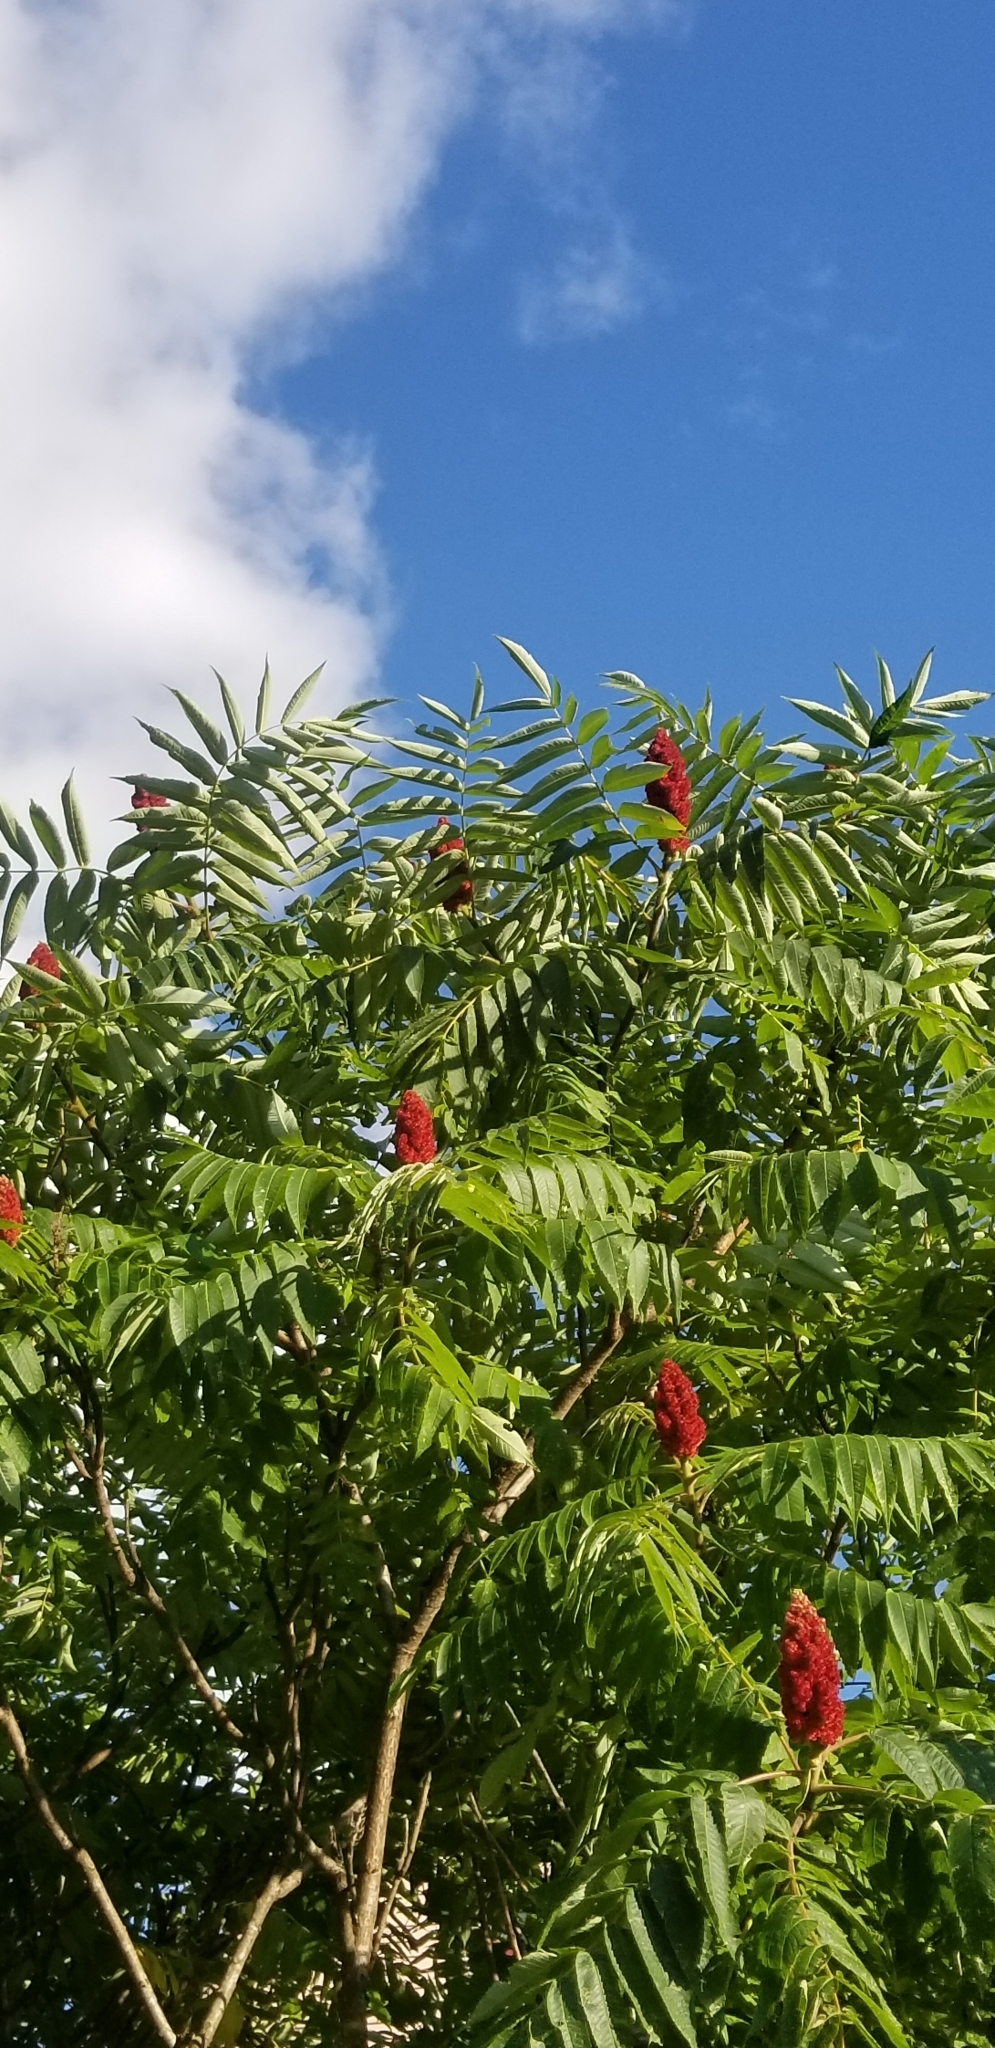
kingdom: Plantae
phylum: Tracheophyta
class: Magnoliopsida
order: Sapindales
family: Anacardiaceae
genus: Rhus
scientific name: Rhus typhina
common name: Staghorn sumac
